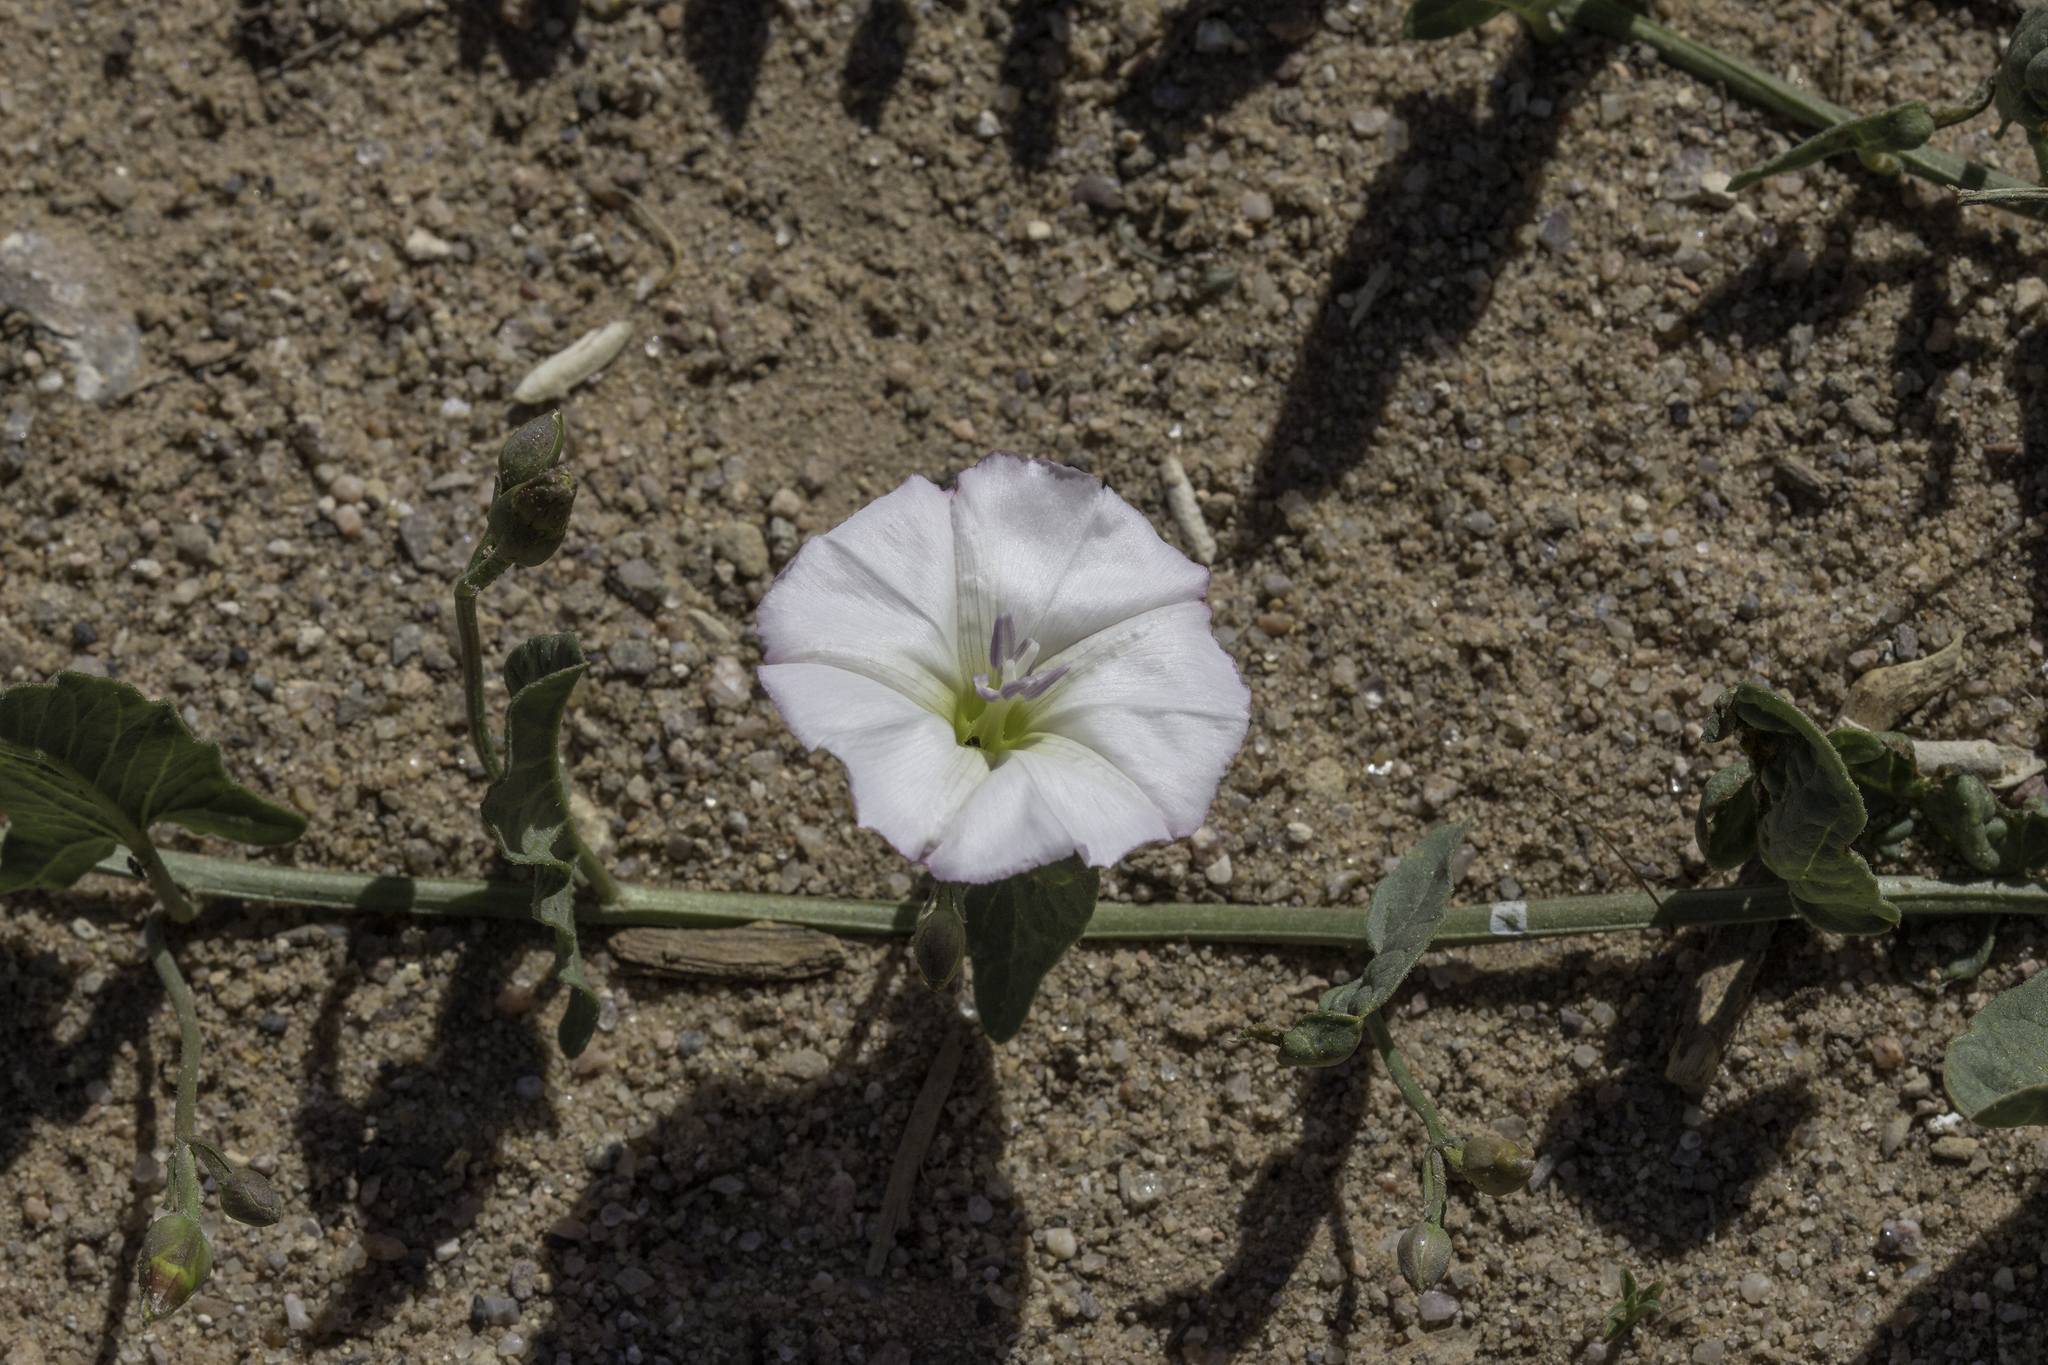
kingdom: Plantae
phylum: Tracheophyta
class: Magnoliopsida
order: Solanales
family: Convolvulaceae
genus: Convolvulus
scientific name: Convolvulus arvensis
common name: Field bindweed
